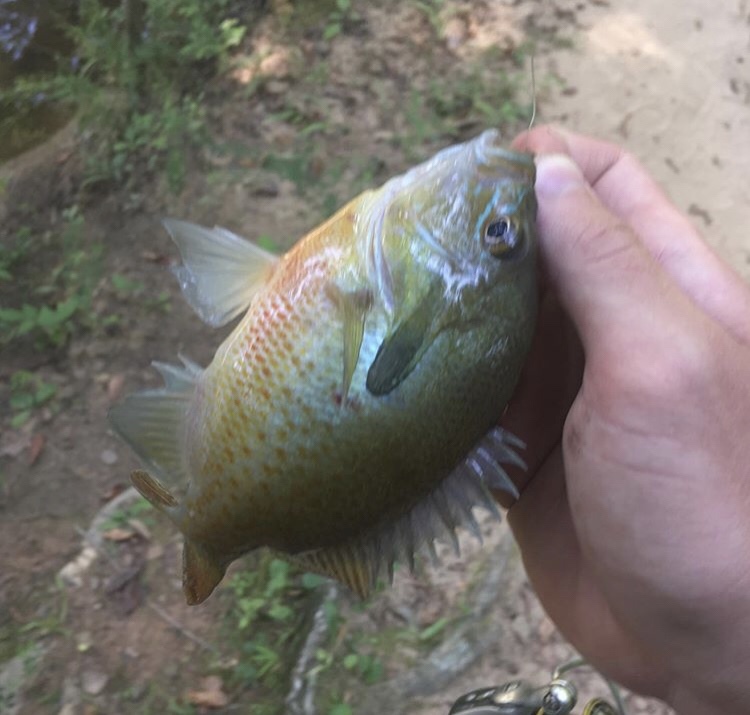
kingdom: Animalia
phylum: Chordata
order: Perciformes
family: Centrarchidae
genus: Lepomis
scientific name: Lepomis auritus
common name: Redbreast sunfish
